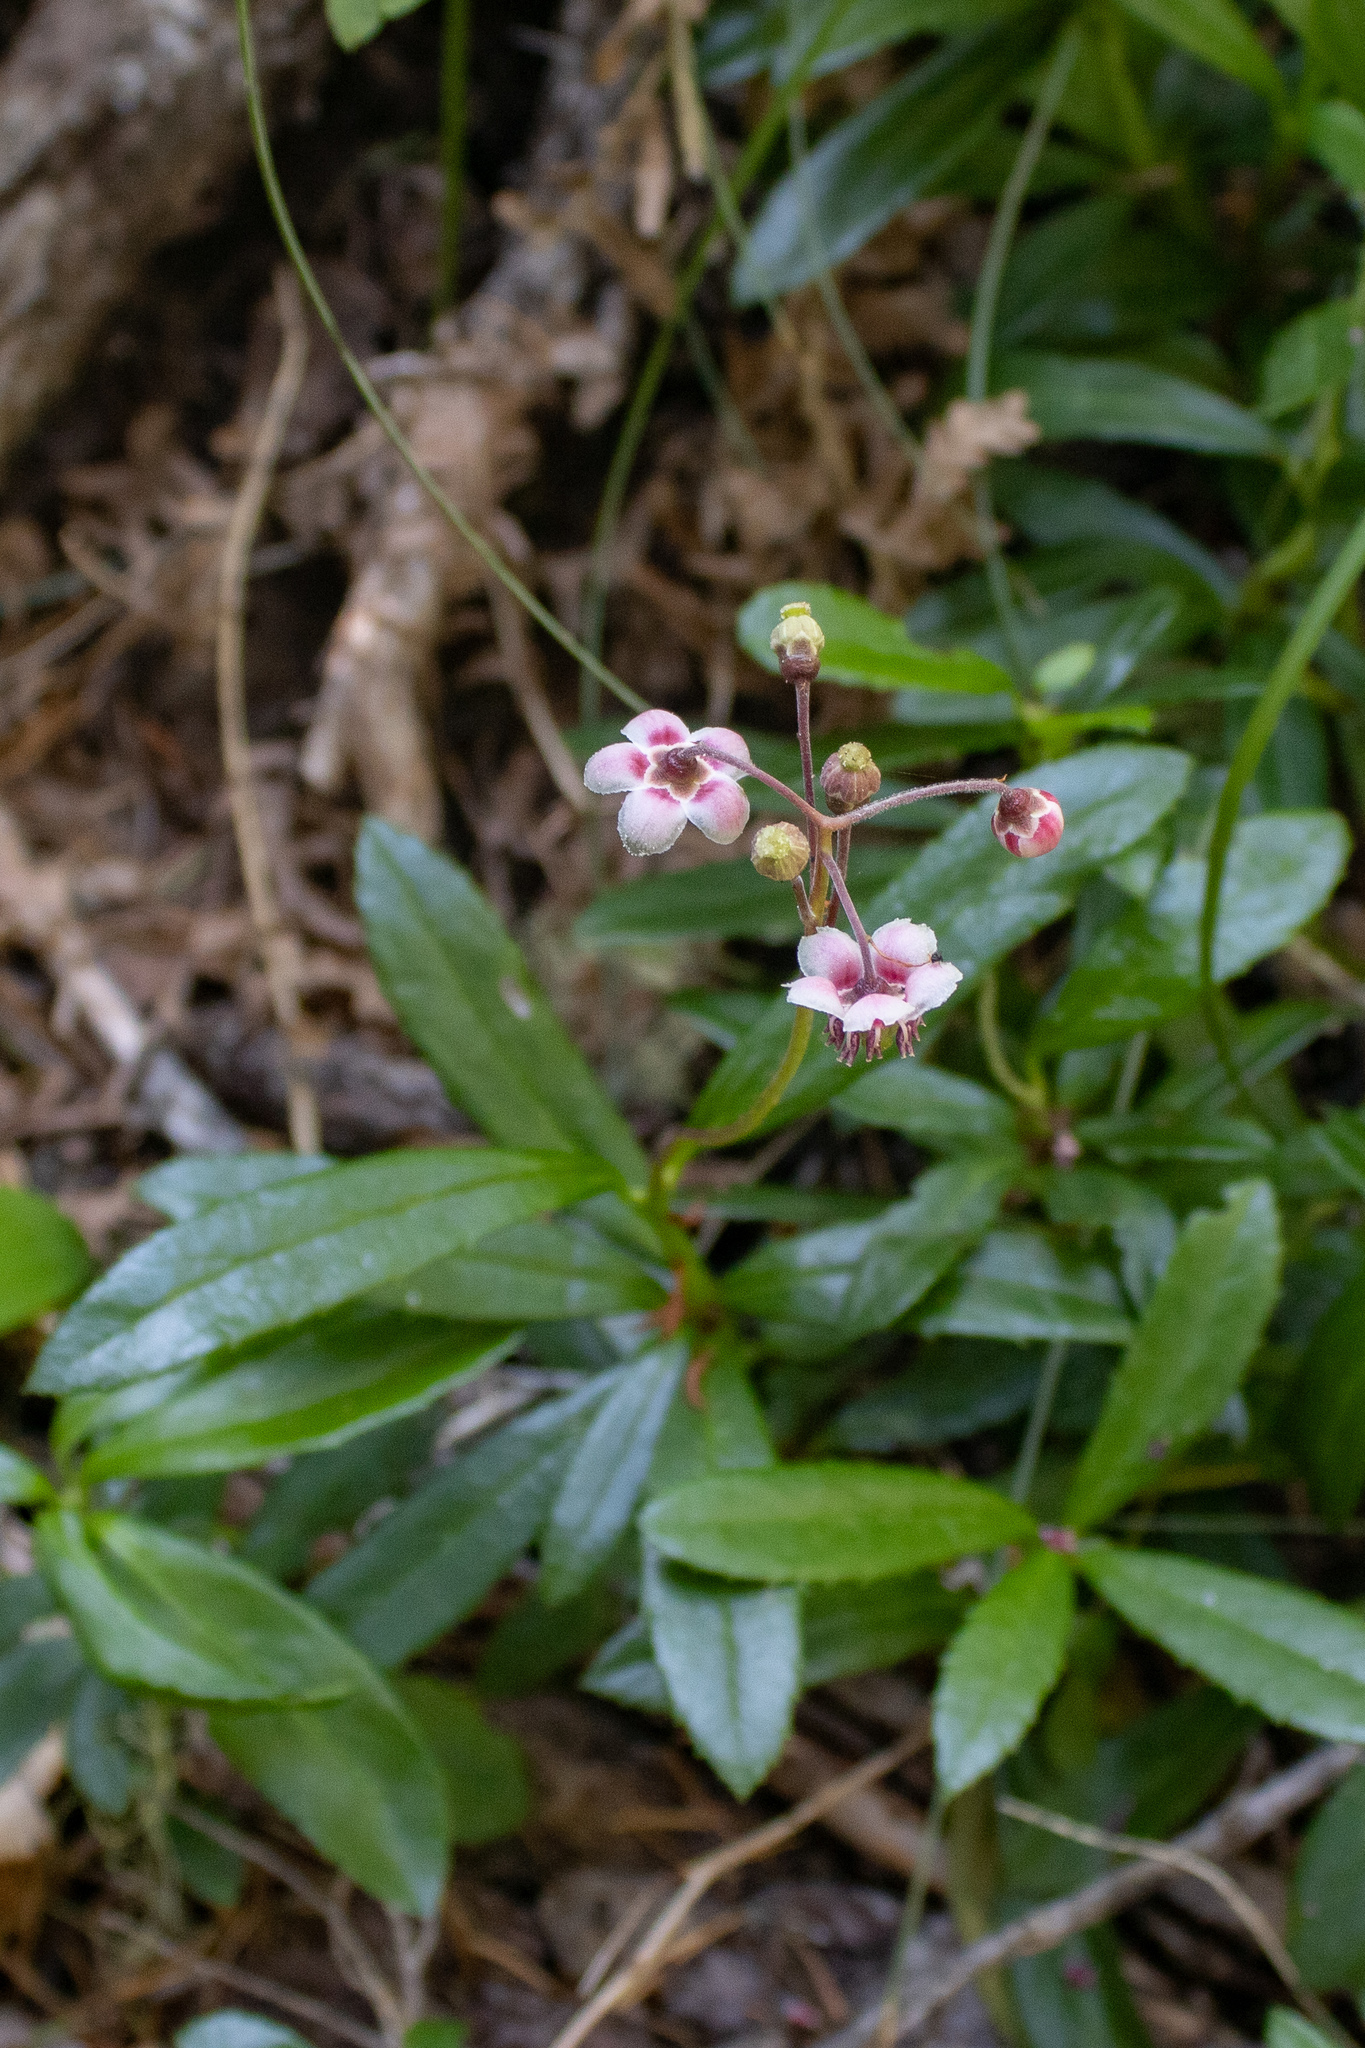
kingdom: Plantae
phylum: Tracheophyta
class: Magnoliopsida
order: Ericales
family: Ericaceae
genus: Chimaphila
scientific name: Chimaphila umbellata
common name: Pipsissewa
